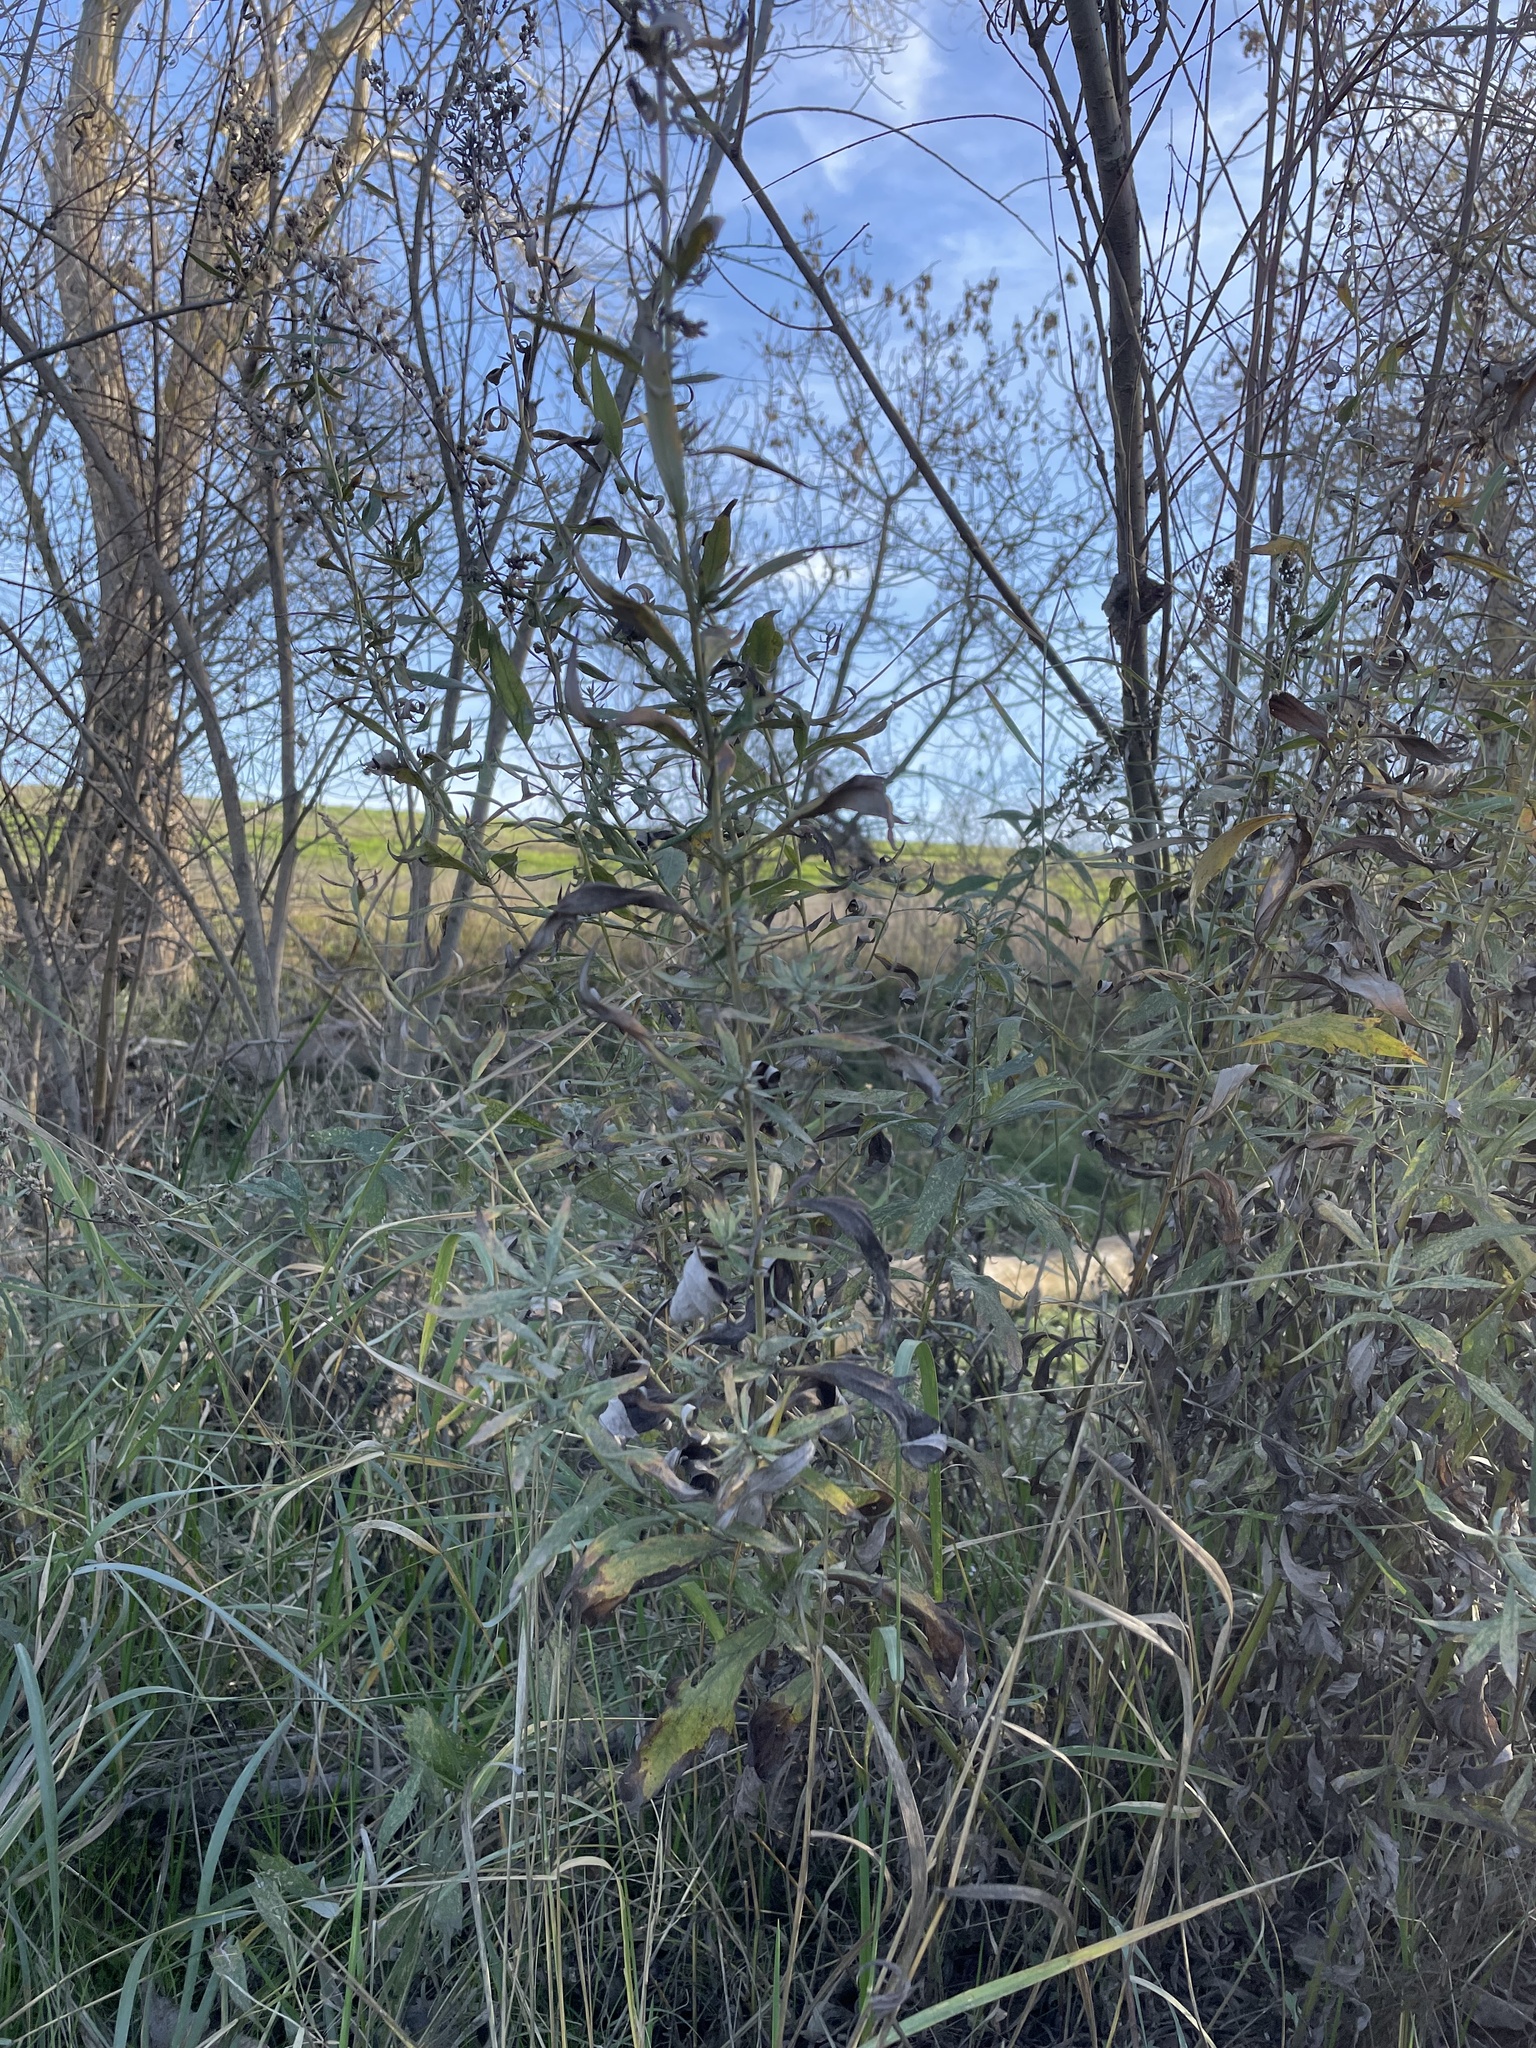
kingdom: Plantae
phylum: Tracheophyta
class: Magnoliopsida
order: Asterales
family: Asteraceae
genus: Artemisia
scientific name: Artemisia douglasiana
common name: Northwest mugwort
